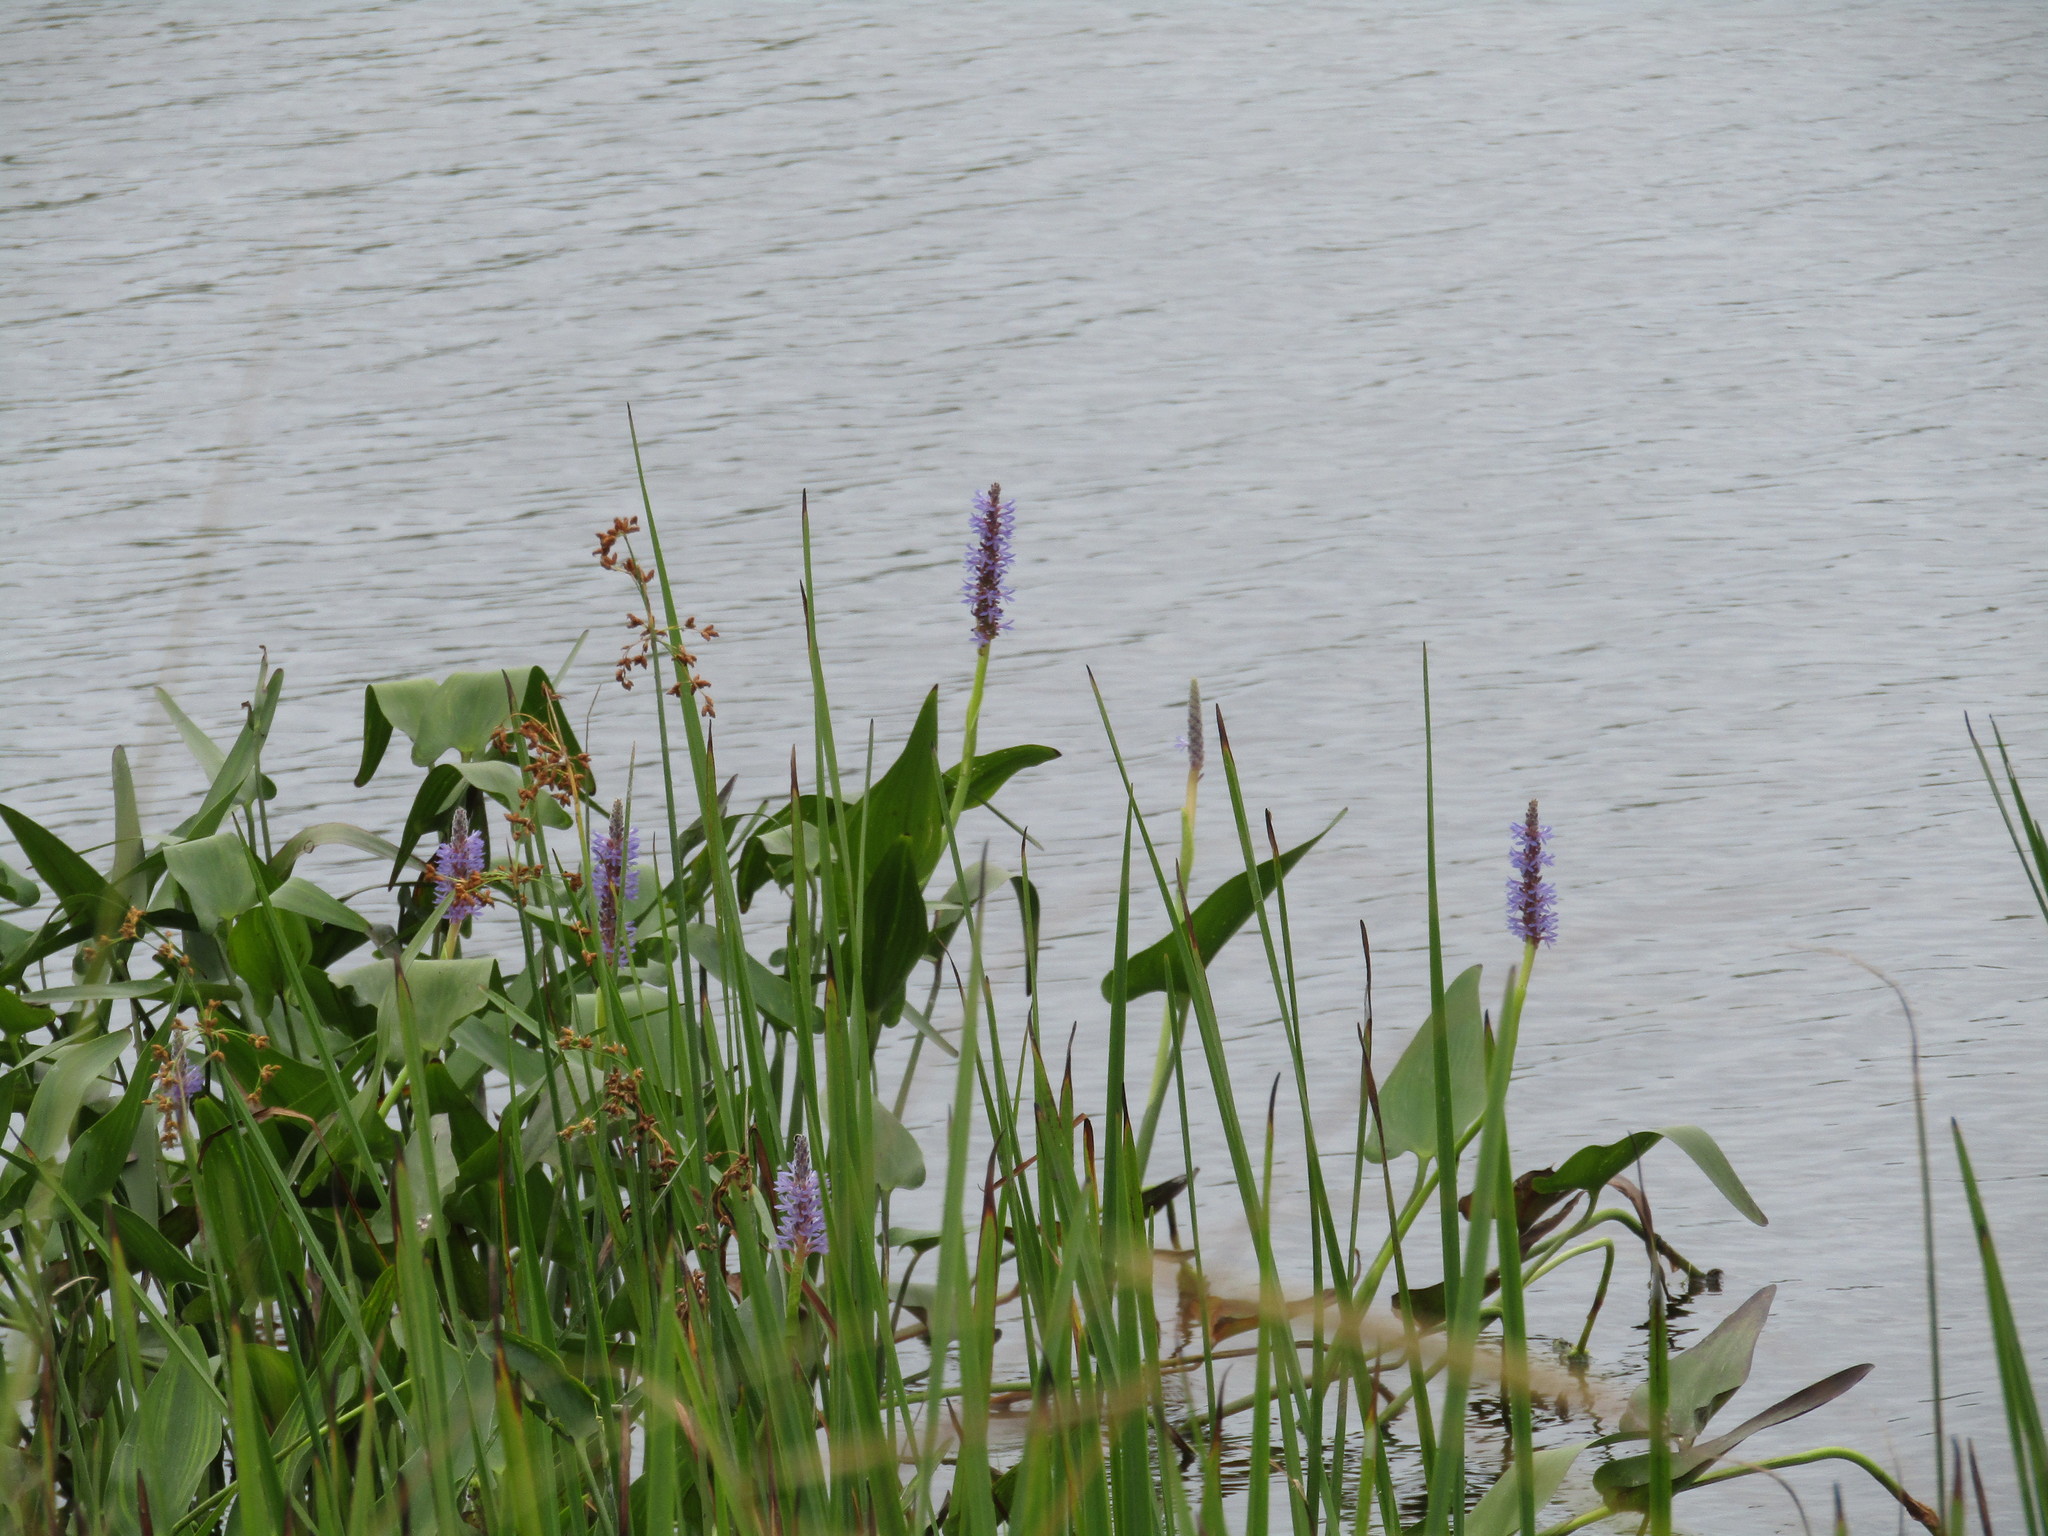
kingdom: Plantae
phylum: Tracheophyta
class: Liliopsida
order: Commelinales
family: Pontederiaceae
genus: Pontederia
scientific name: Pontederia cordata
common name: Pickerelweed
